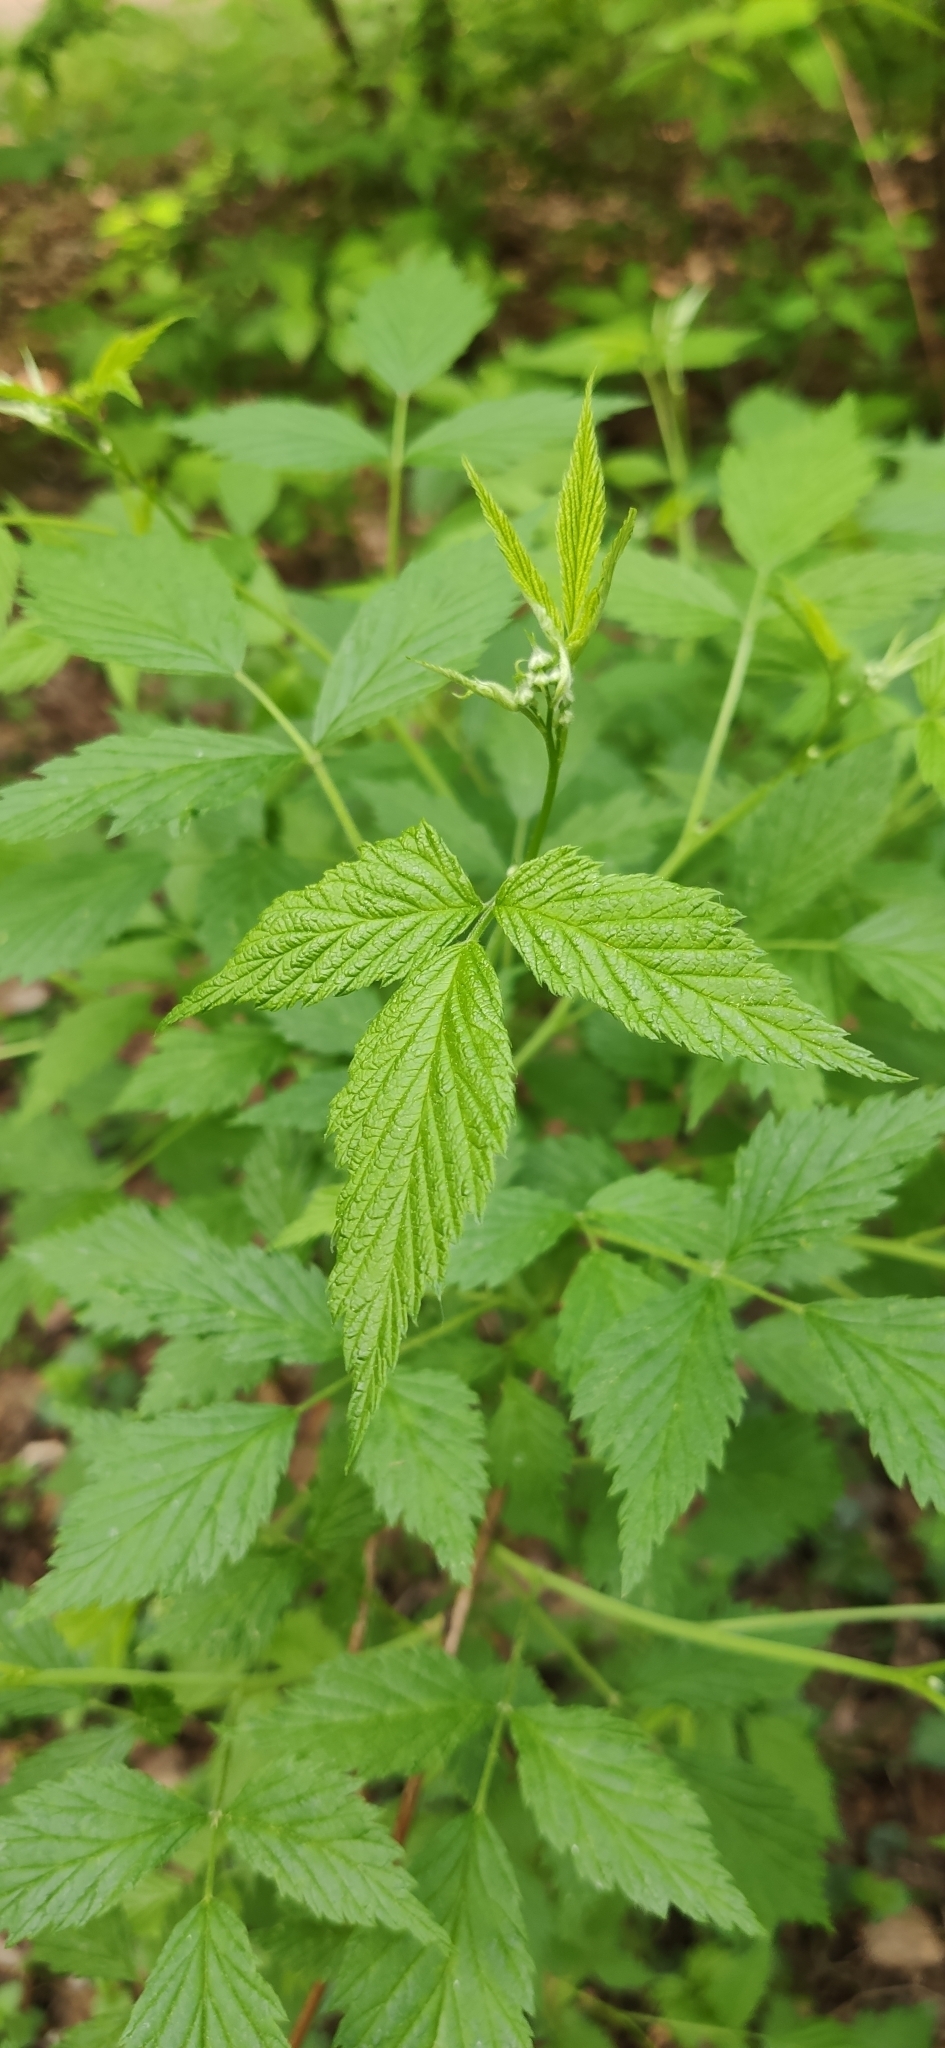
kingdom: Plantae
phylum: Tracheophyta
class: Magnoliopsida
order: Rosales
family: Rosaceae
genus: Rubus
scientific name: Rubus idaeus
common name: Raspberry
